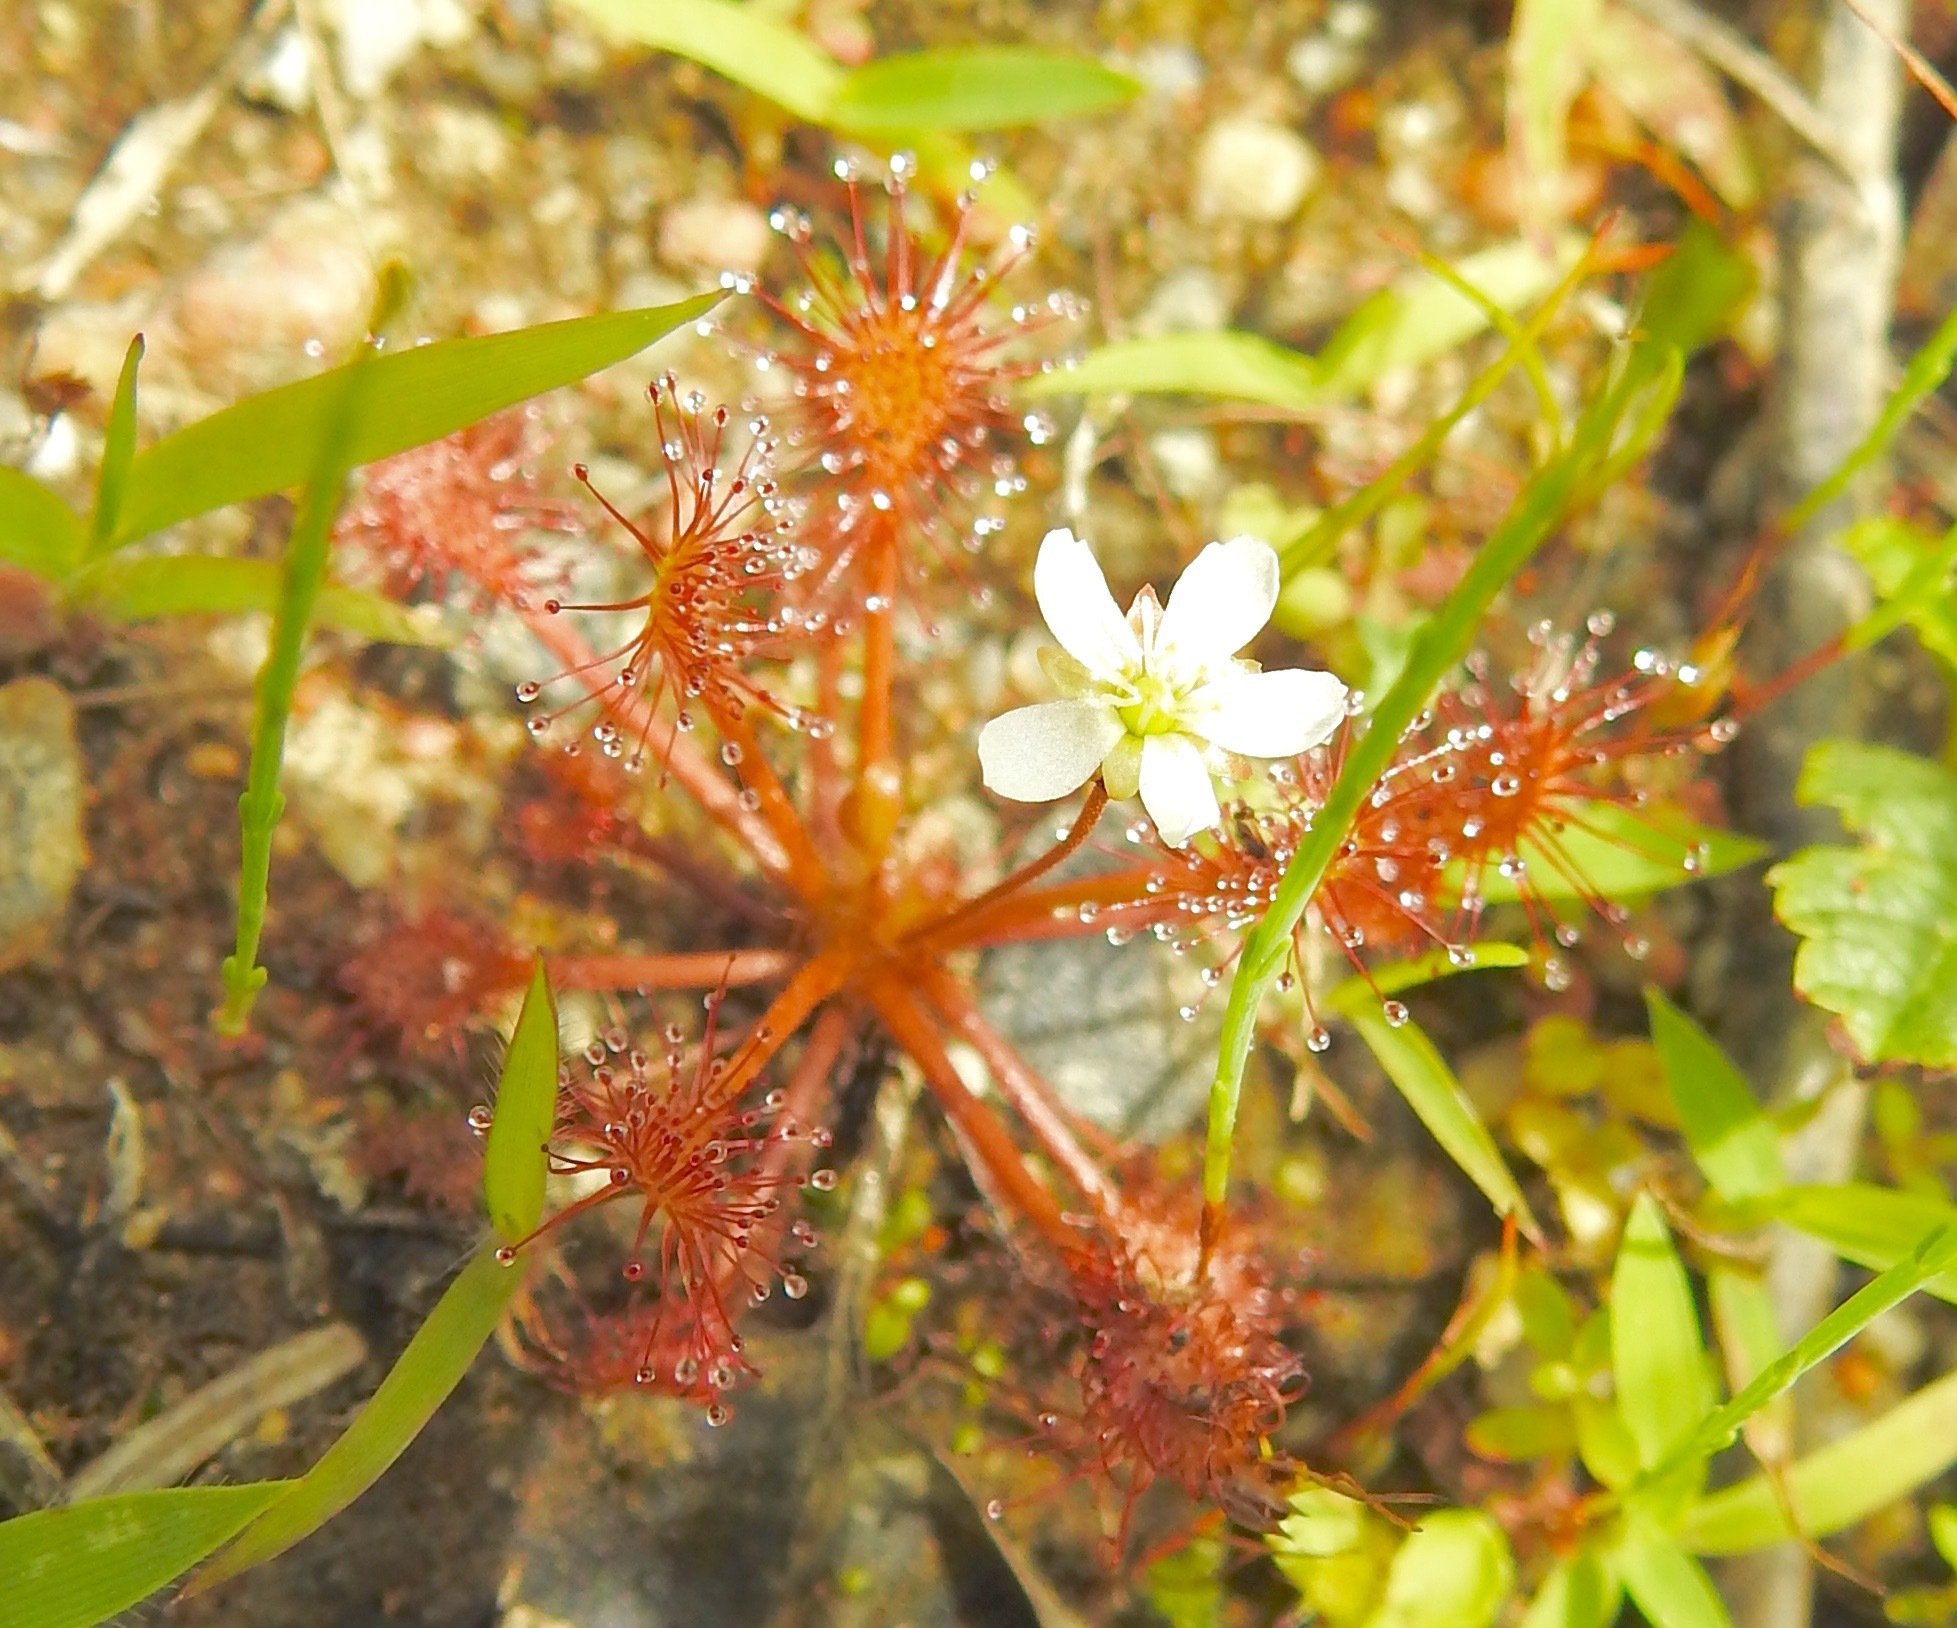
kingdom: Plantae
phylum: Tracheophyta
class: Magnoliopsida
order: Caryophyllales
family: Droseraceae
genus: Drosera
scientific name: Drosera intermedia
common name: Oblong-leaved sundew
